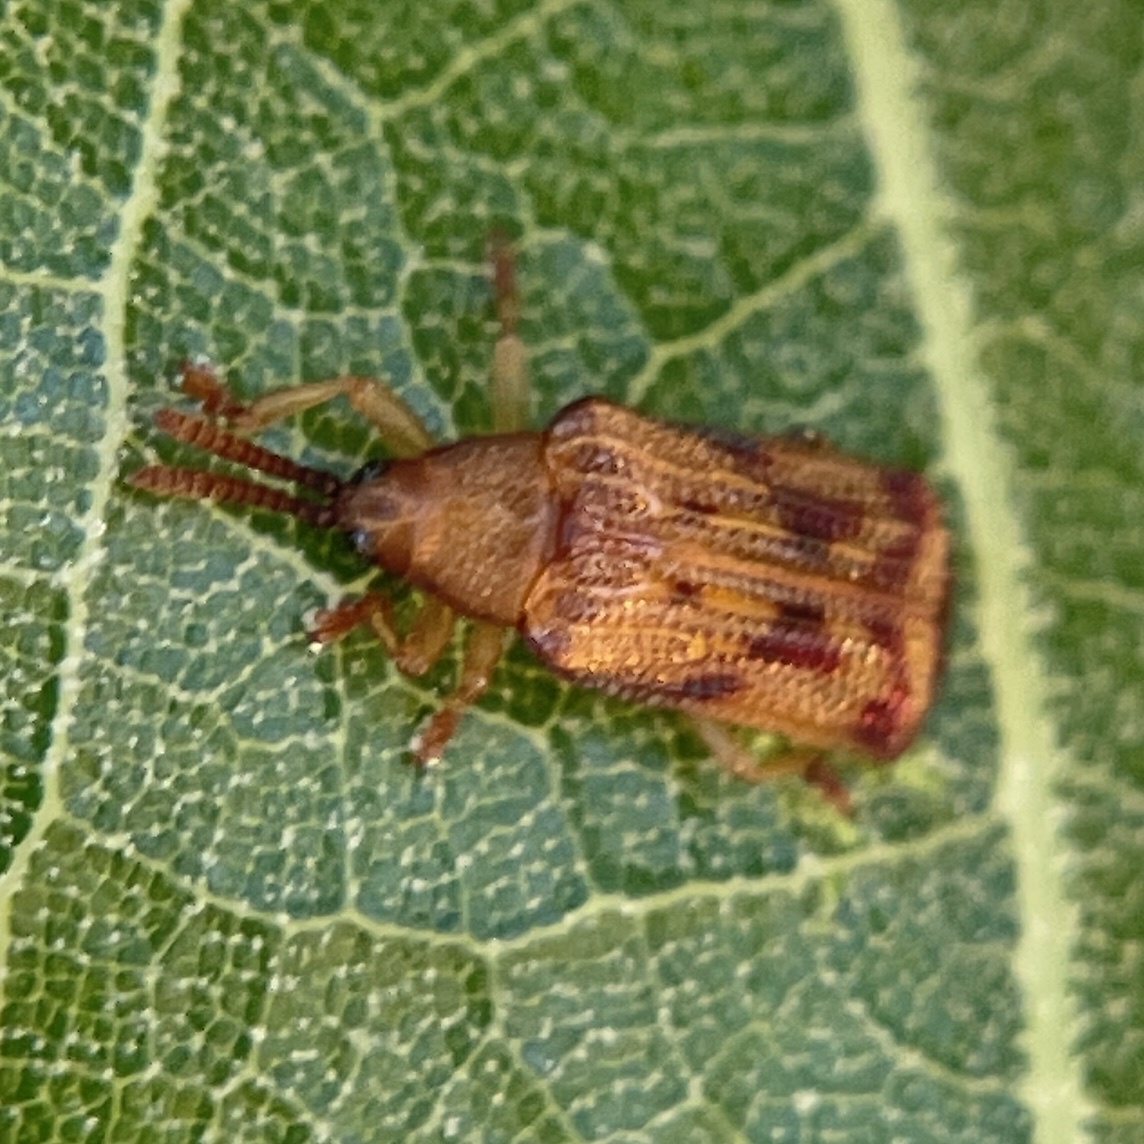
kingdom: Animalia
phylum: Arthropoda
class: Insecta
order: Coleoptera
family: Chrysomelidae
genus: Baliosus
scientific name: Baliosus nervosus
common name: Basswood leaf miner
